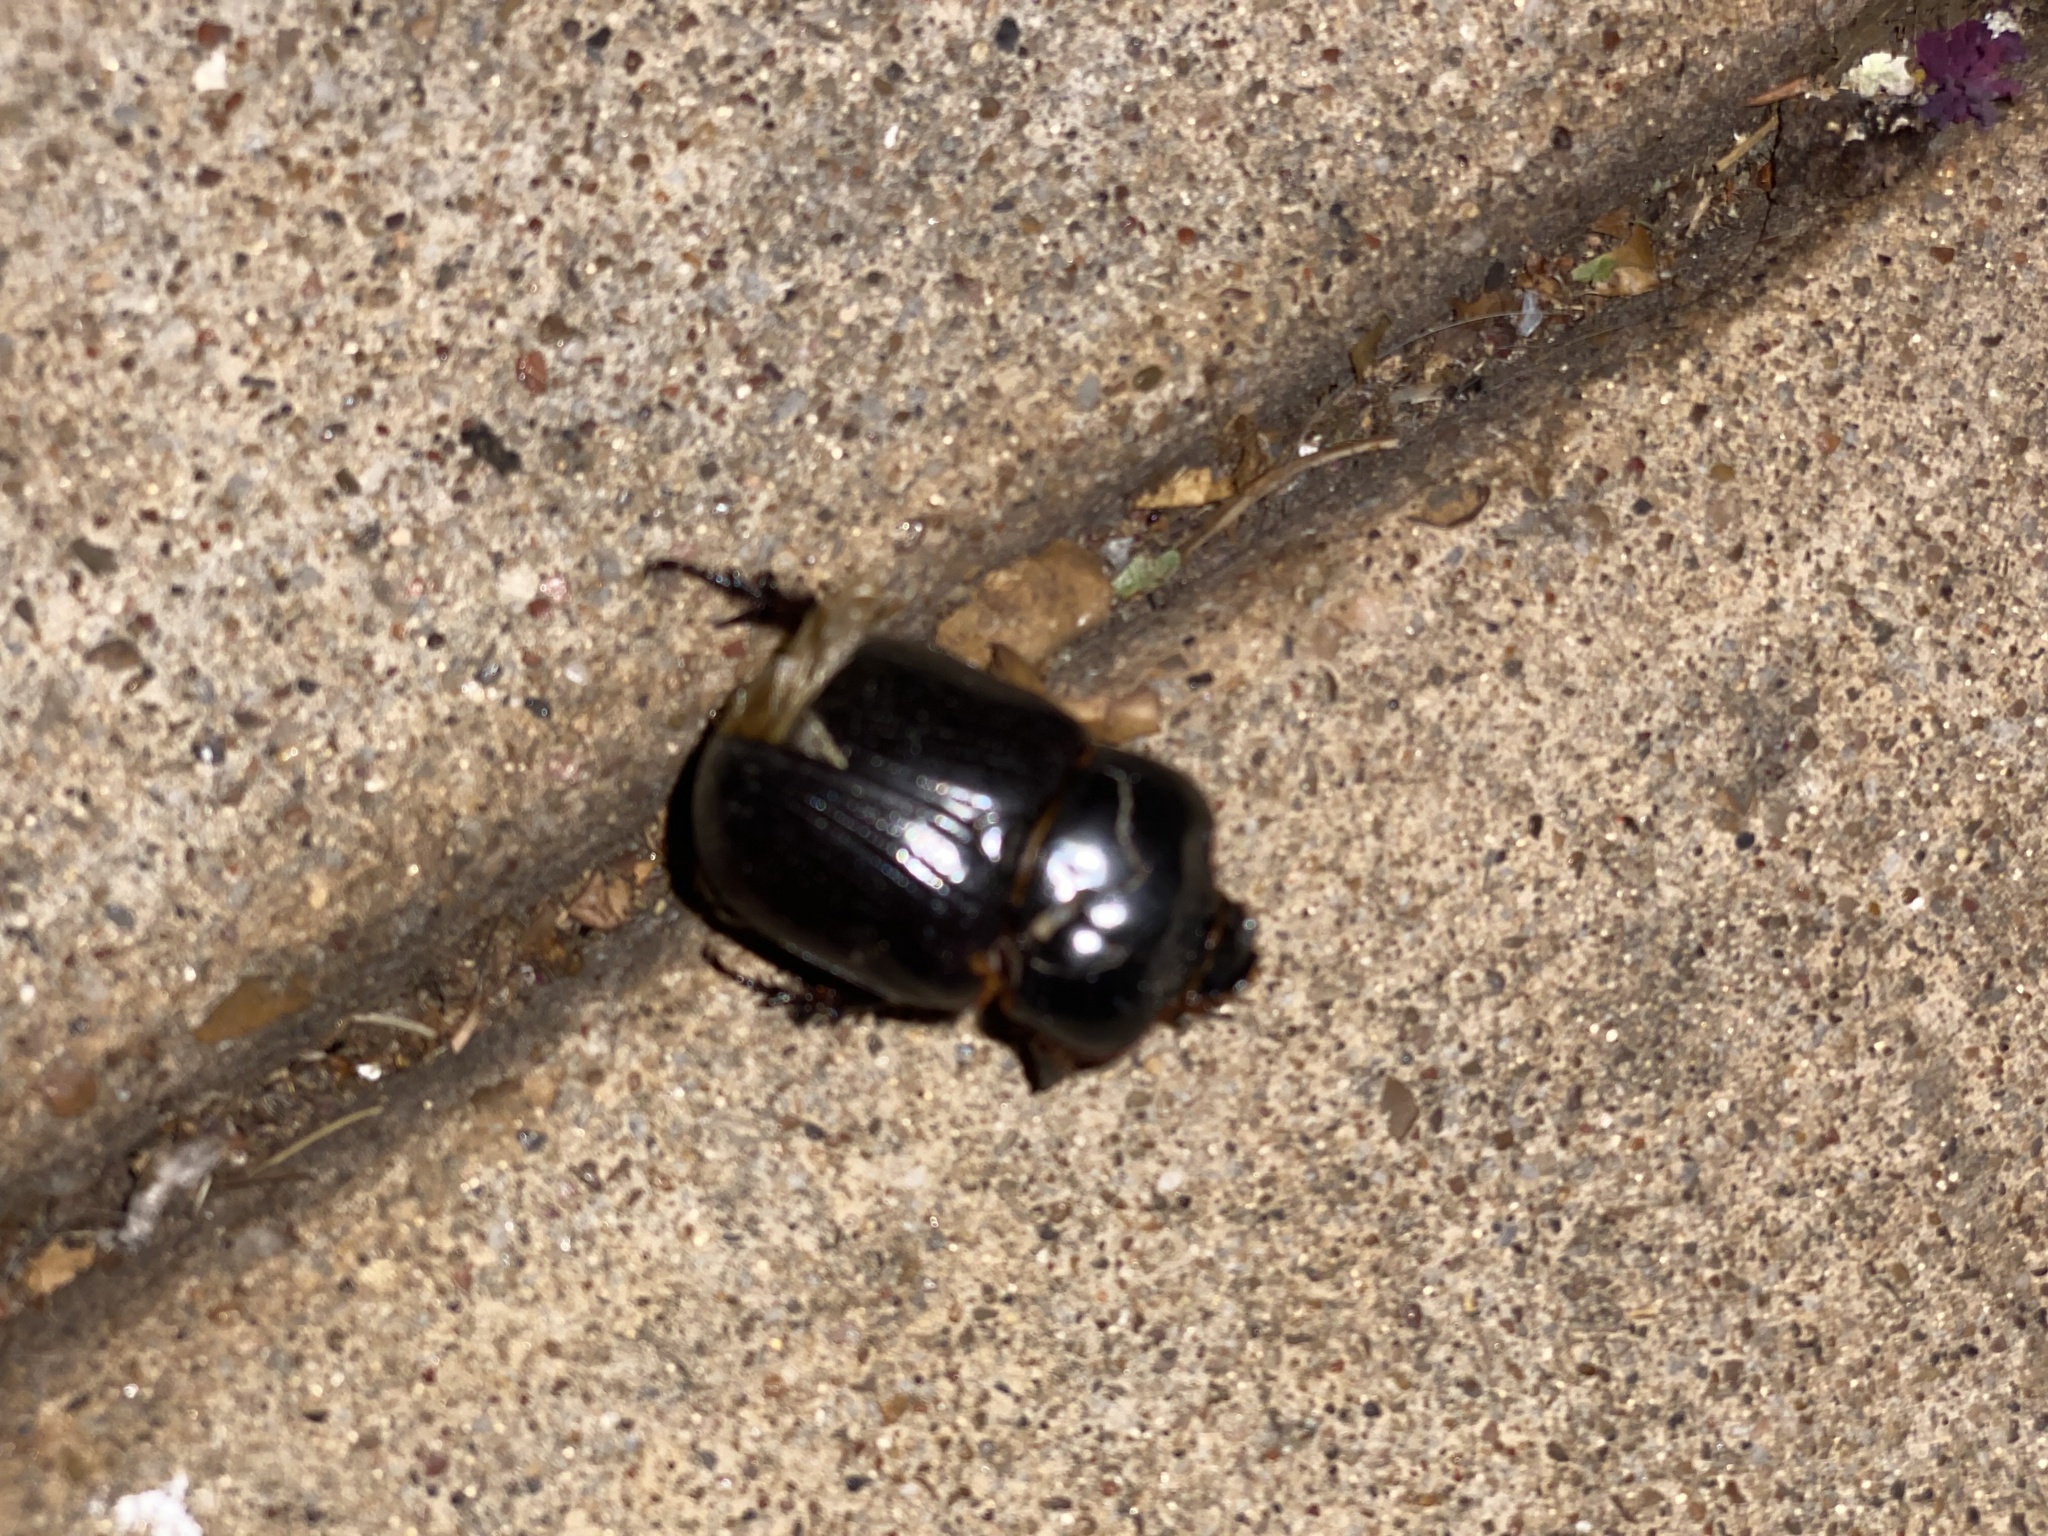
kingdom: Animalia
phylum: Arthropoda
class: Insecta
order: Coleoptera
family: Scarabaeidae
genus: Xyloryctes
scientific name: Xyloryctes jamaicensis
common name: Eastern rhinoceros beetle
